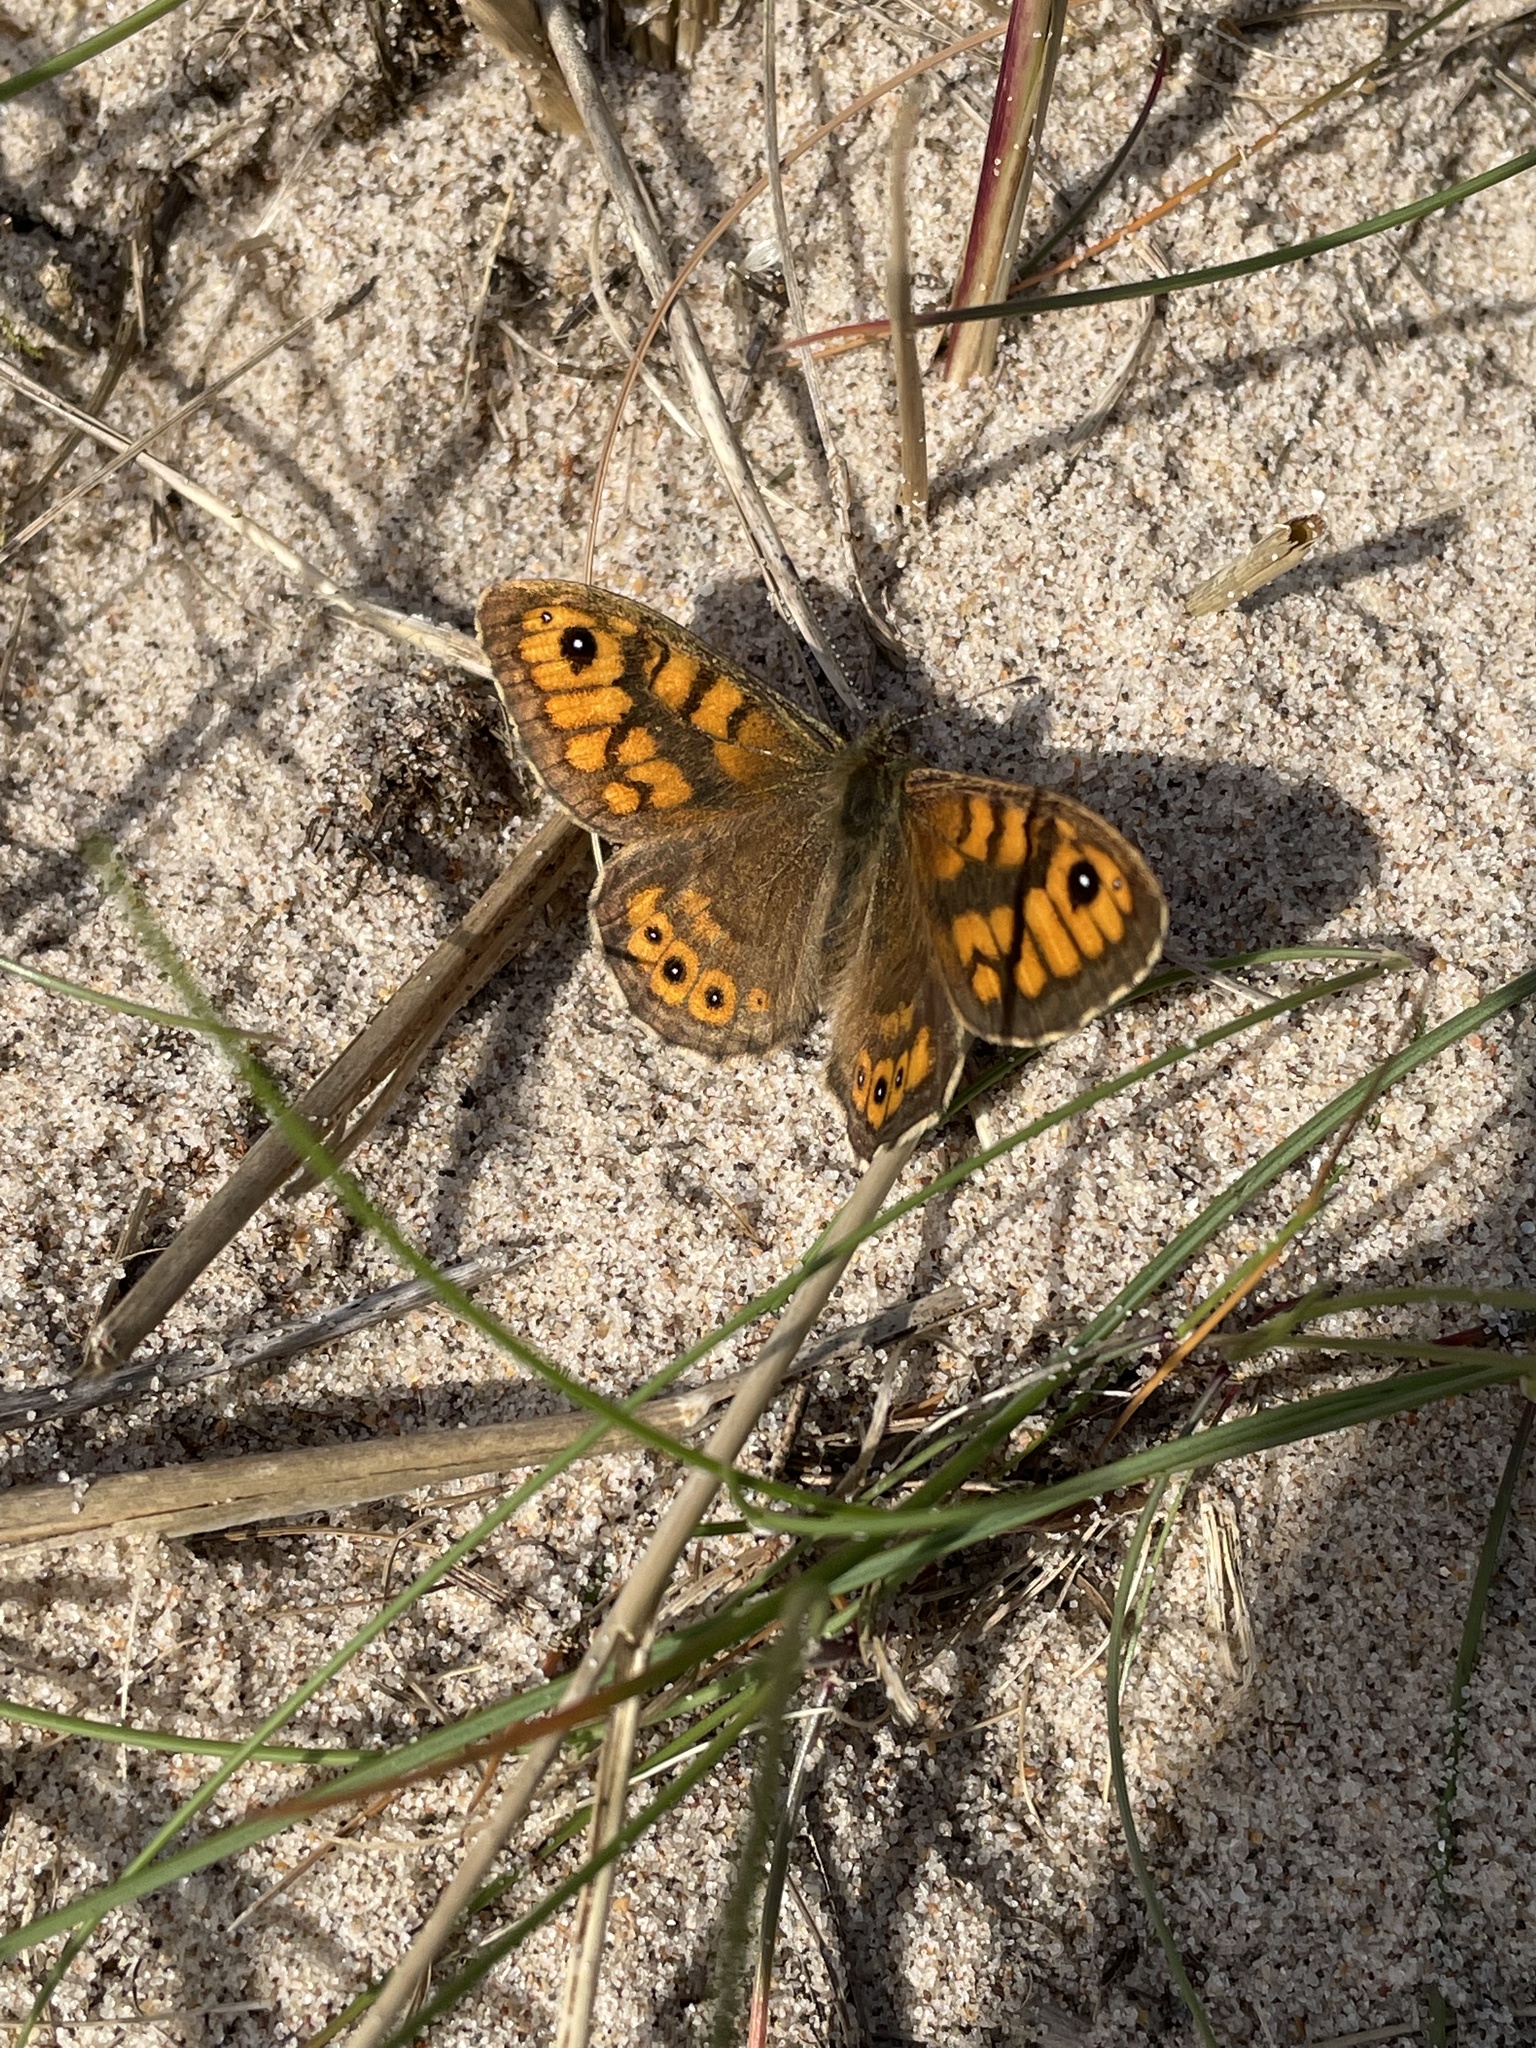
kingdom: Animalia
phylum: Arthropoda
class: Insecta
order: Lepidoptera
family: Nymphalidae
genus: Pararge
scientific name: Pararge Lasiommata megera
